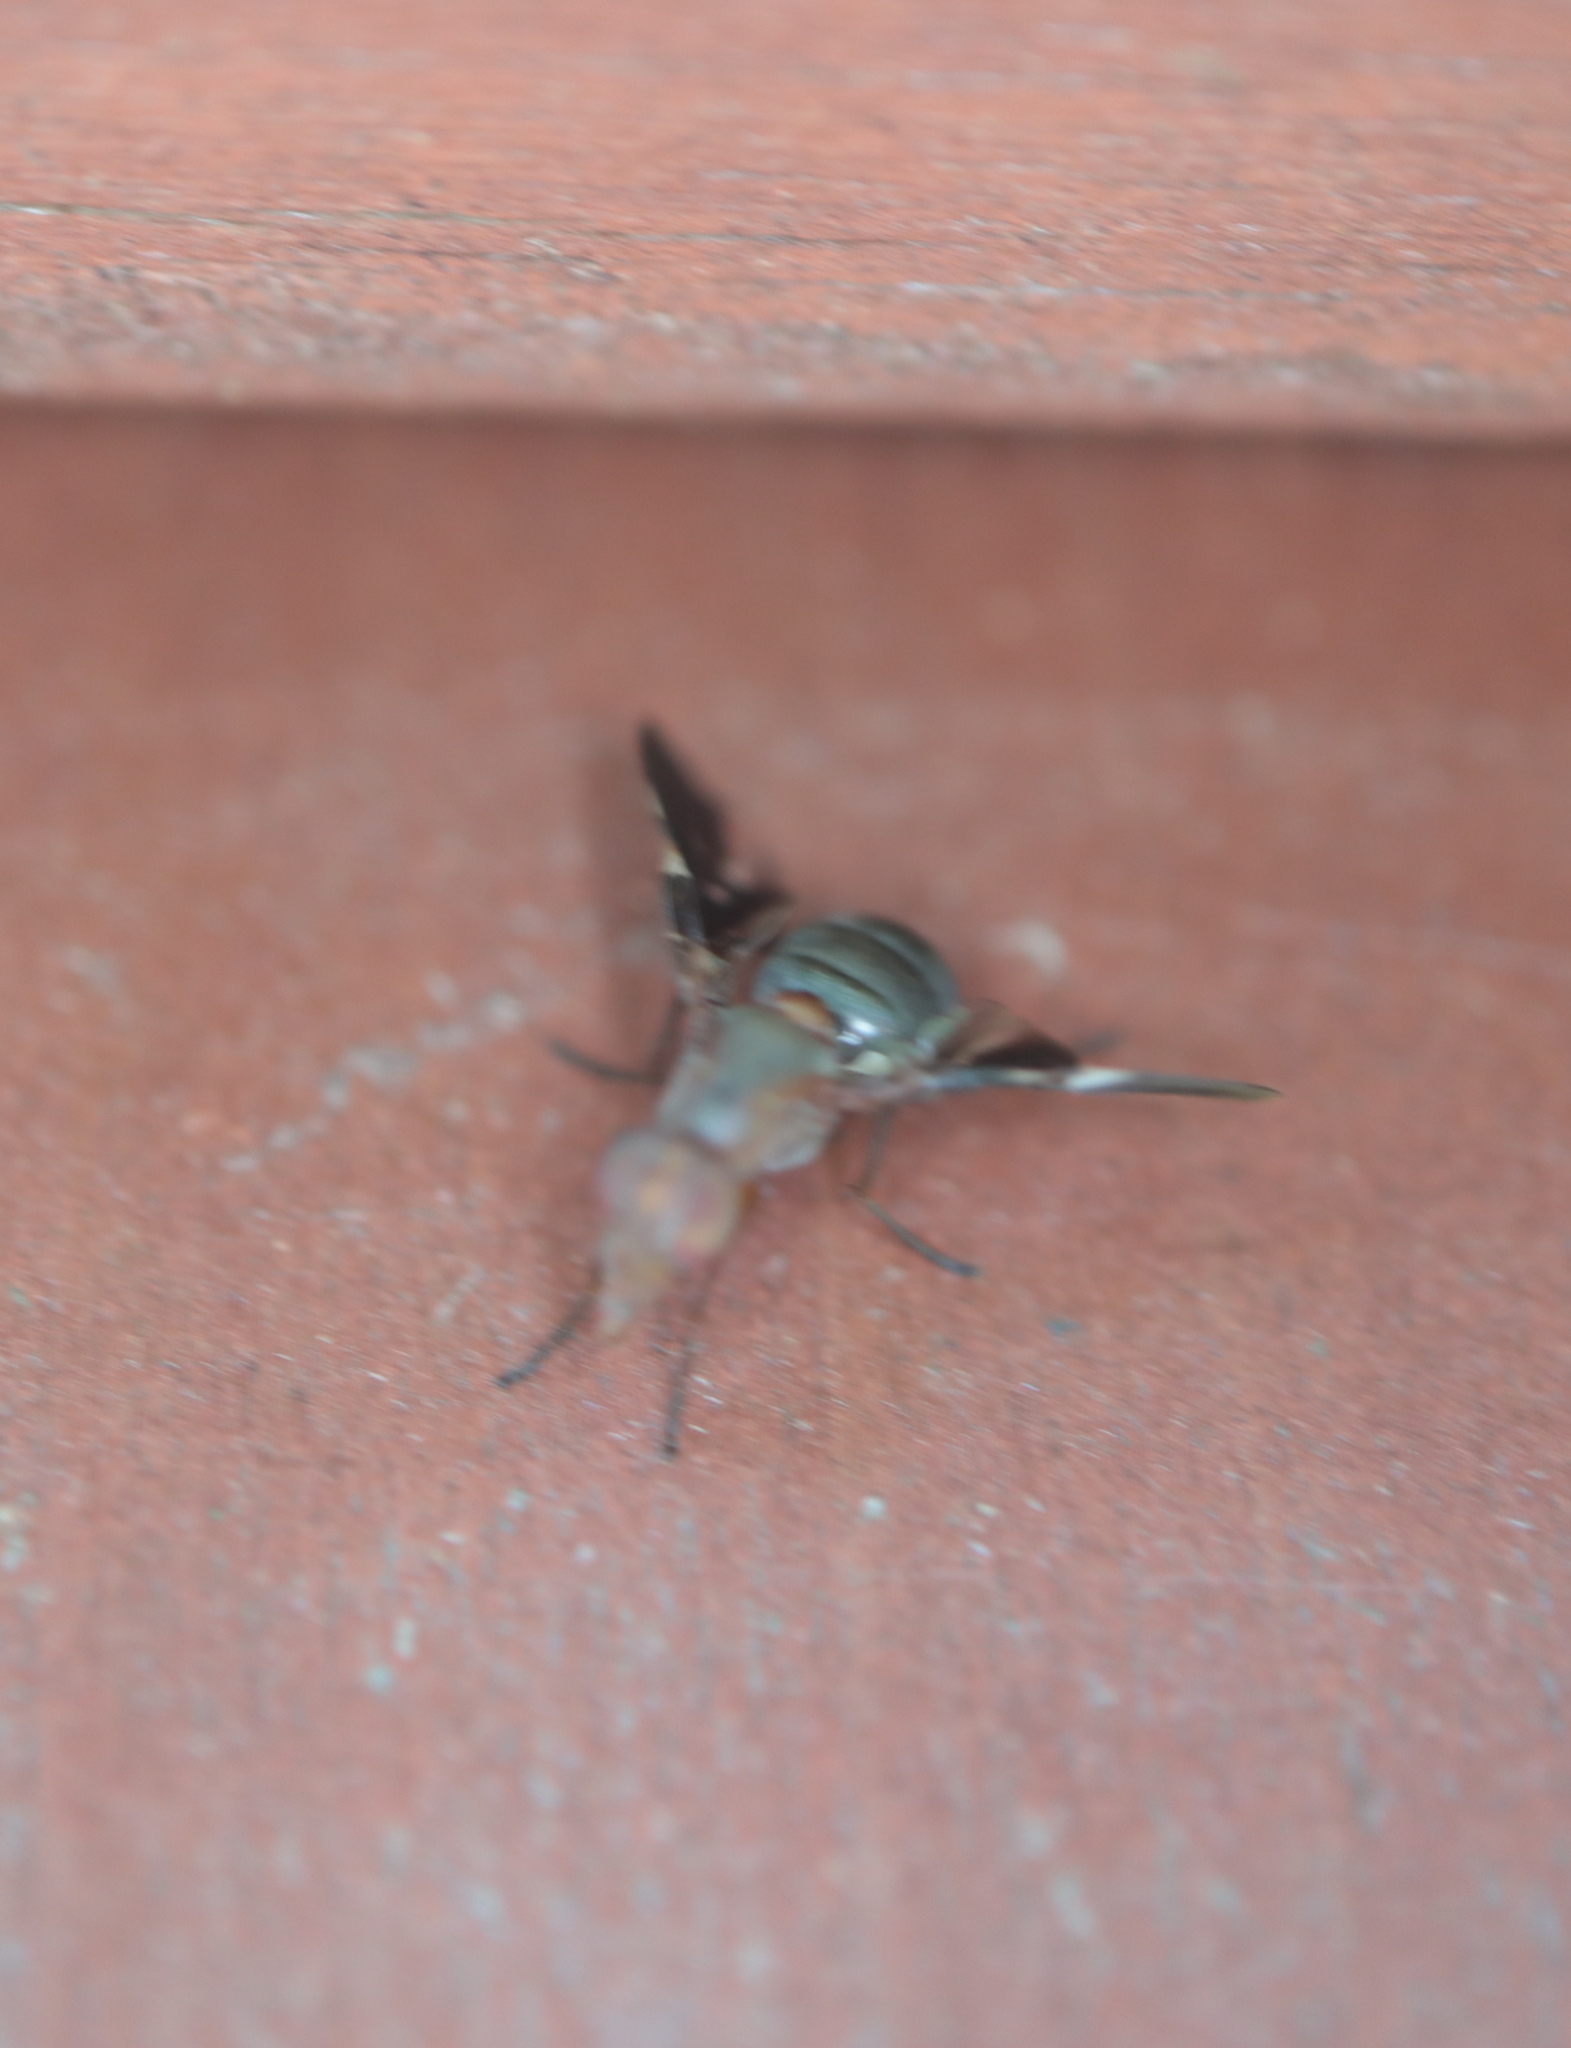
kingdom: Animalia
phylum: Arthropoda
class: Insecta
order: Diptera
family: Ulidiidae
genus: Delphinia
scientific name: Delphinia picta
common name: Common picture-winged fly
